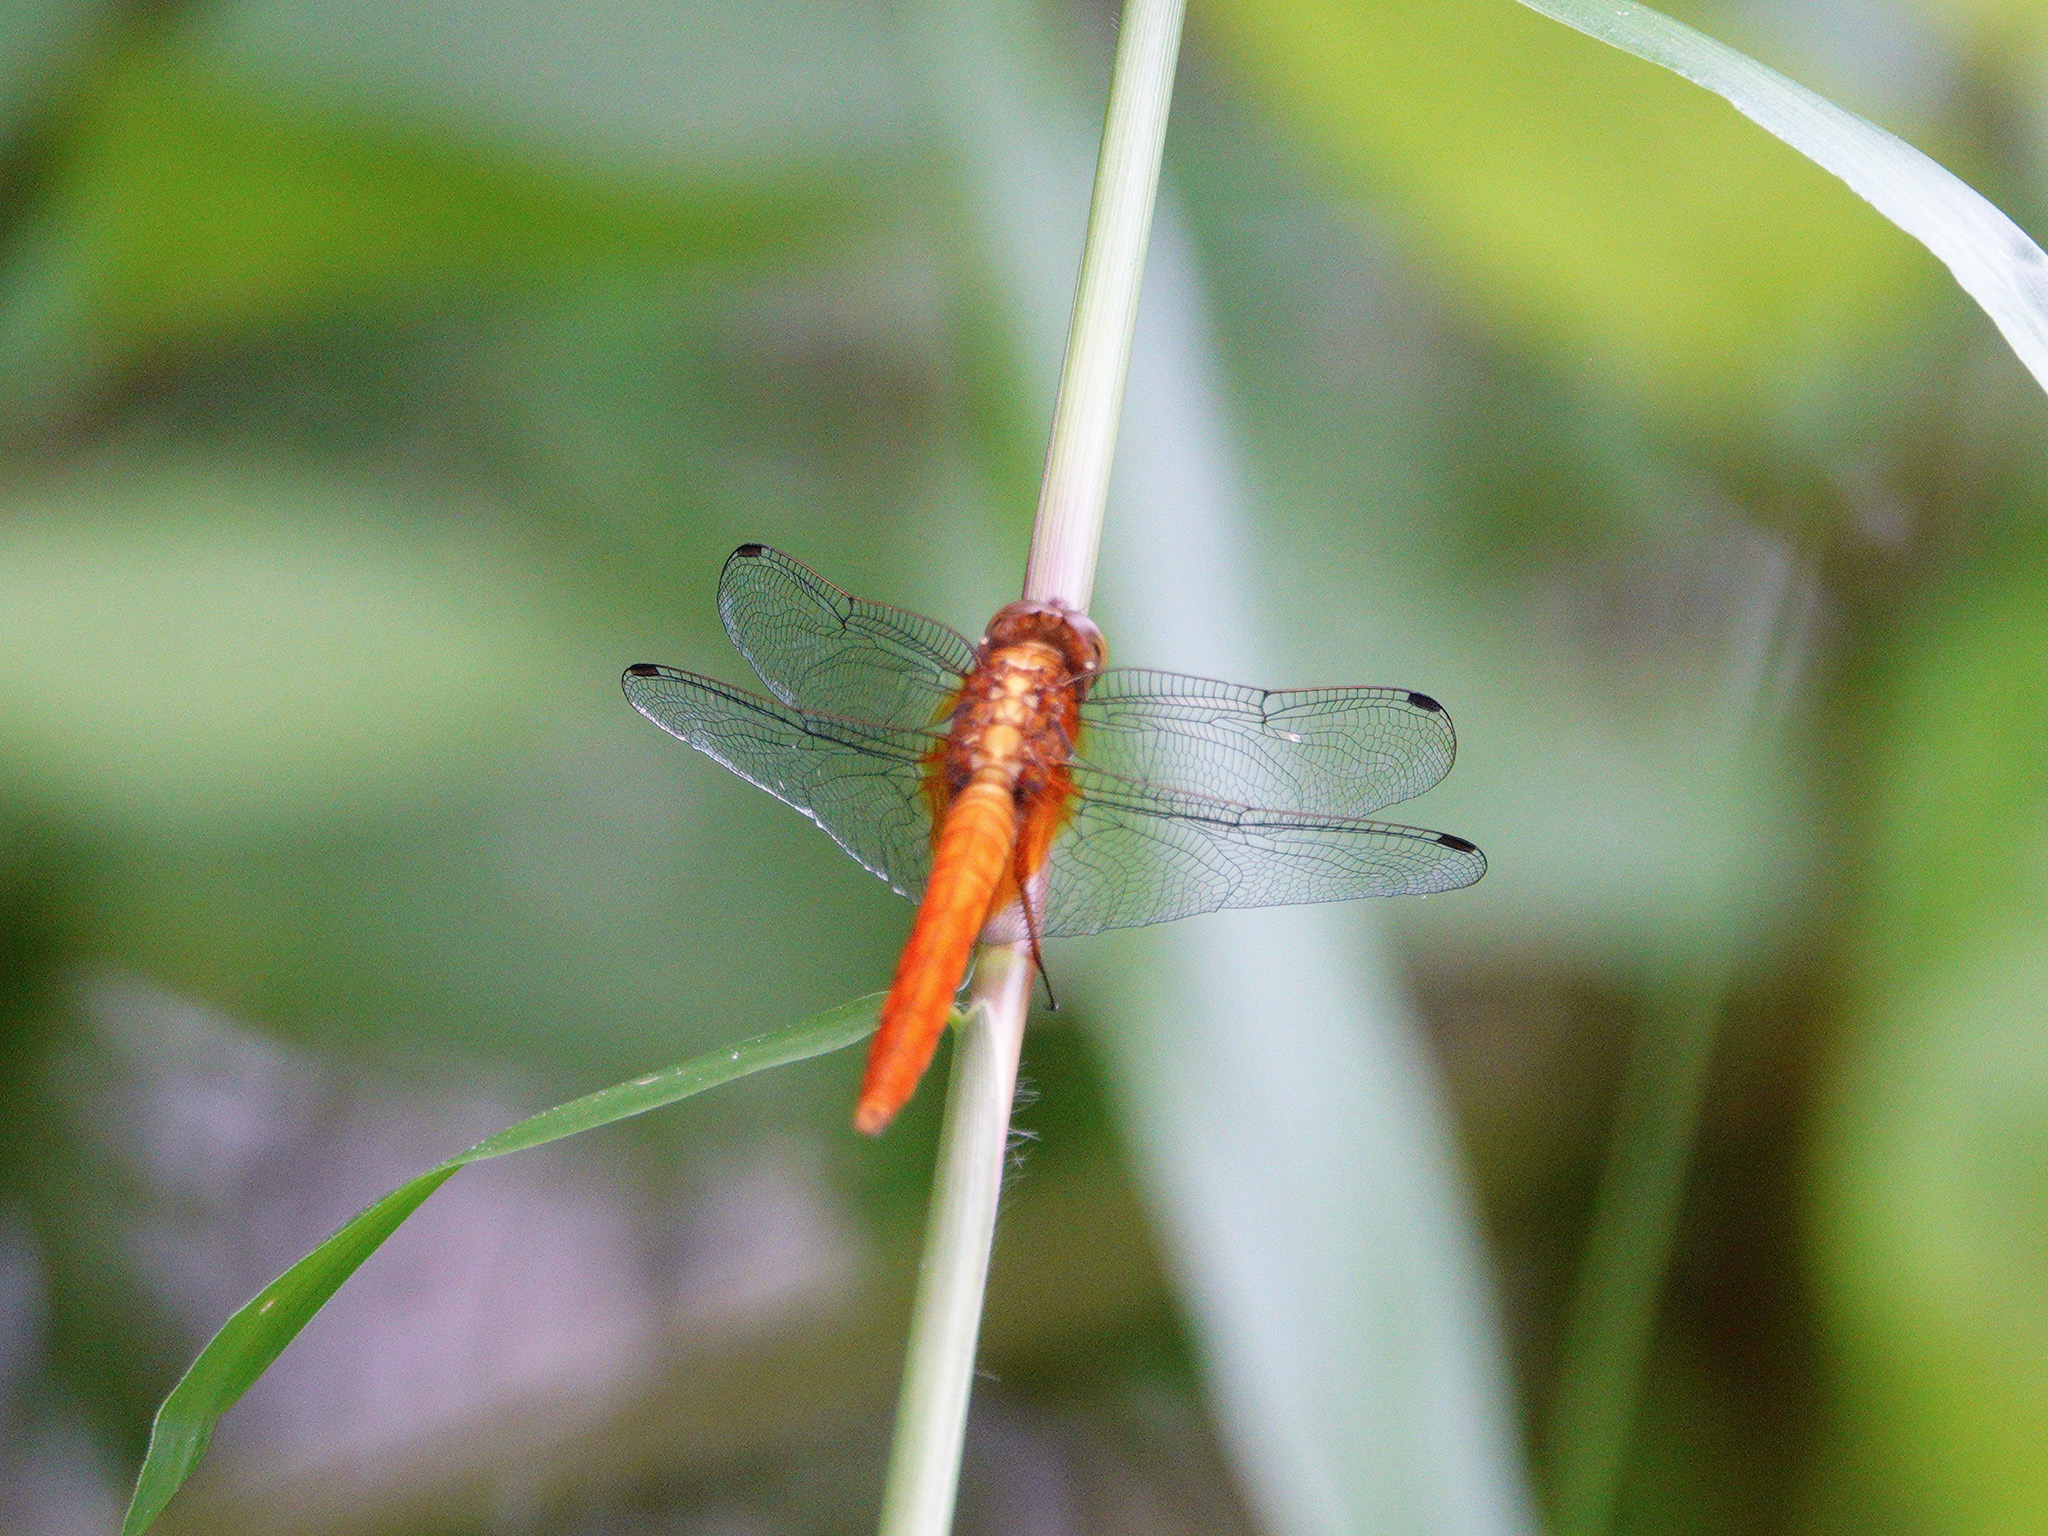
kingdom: Animalia
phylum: Arthropoda
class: Insecta
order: Odonata
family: Libellulidae
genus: Orthetrum
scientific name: Orthetrum testaceum
